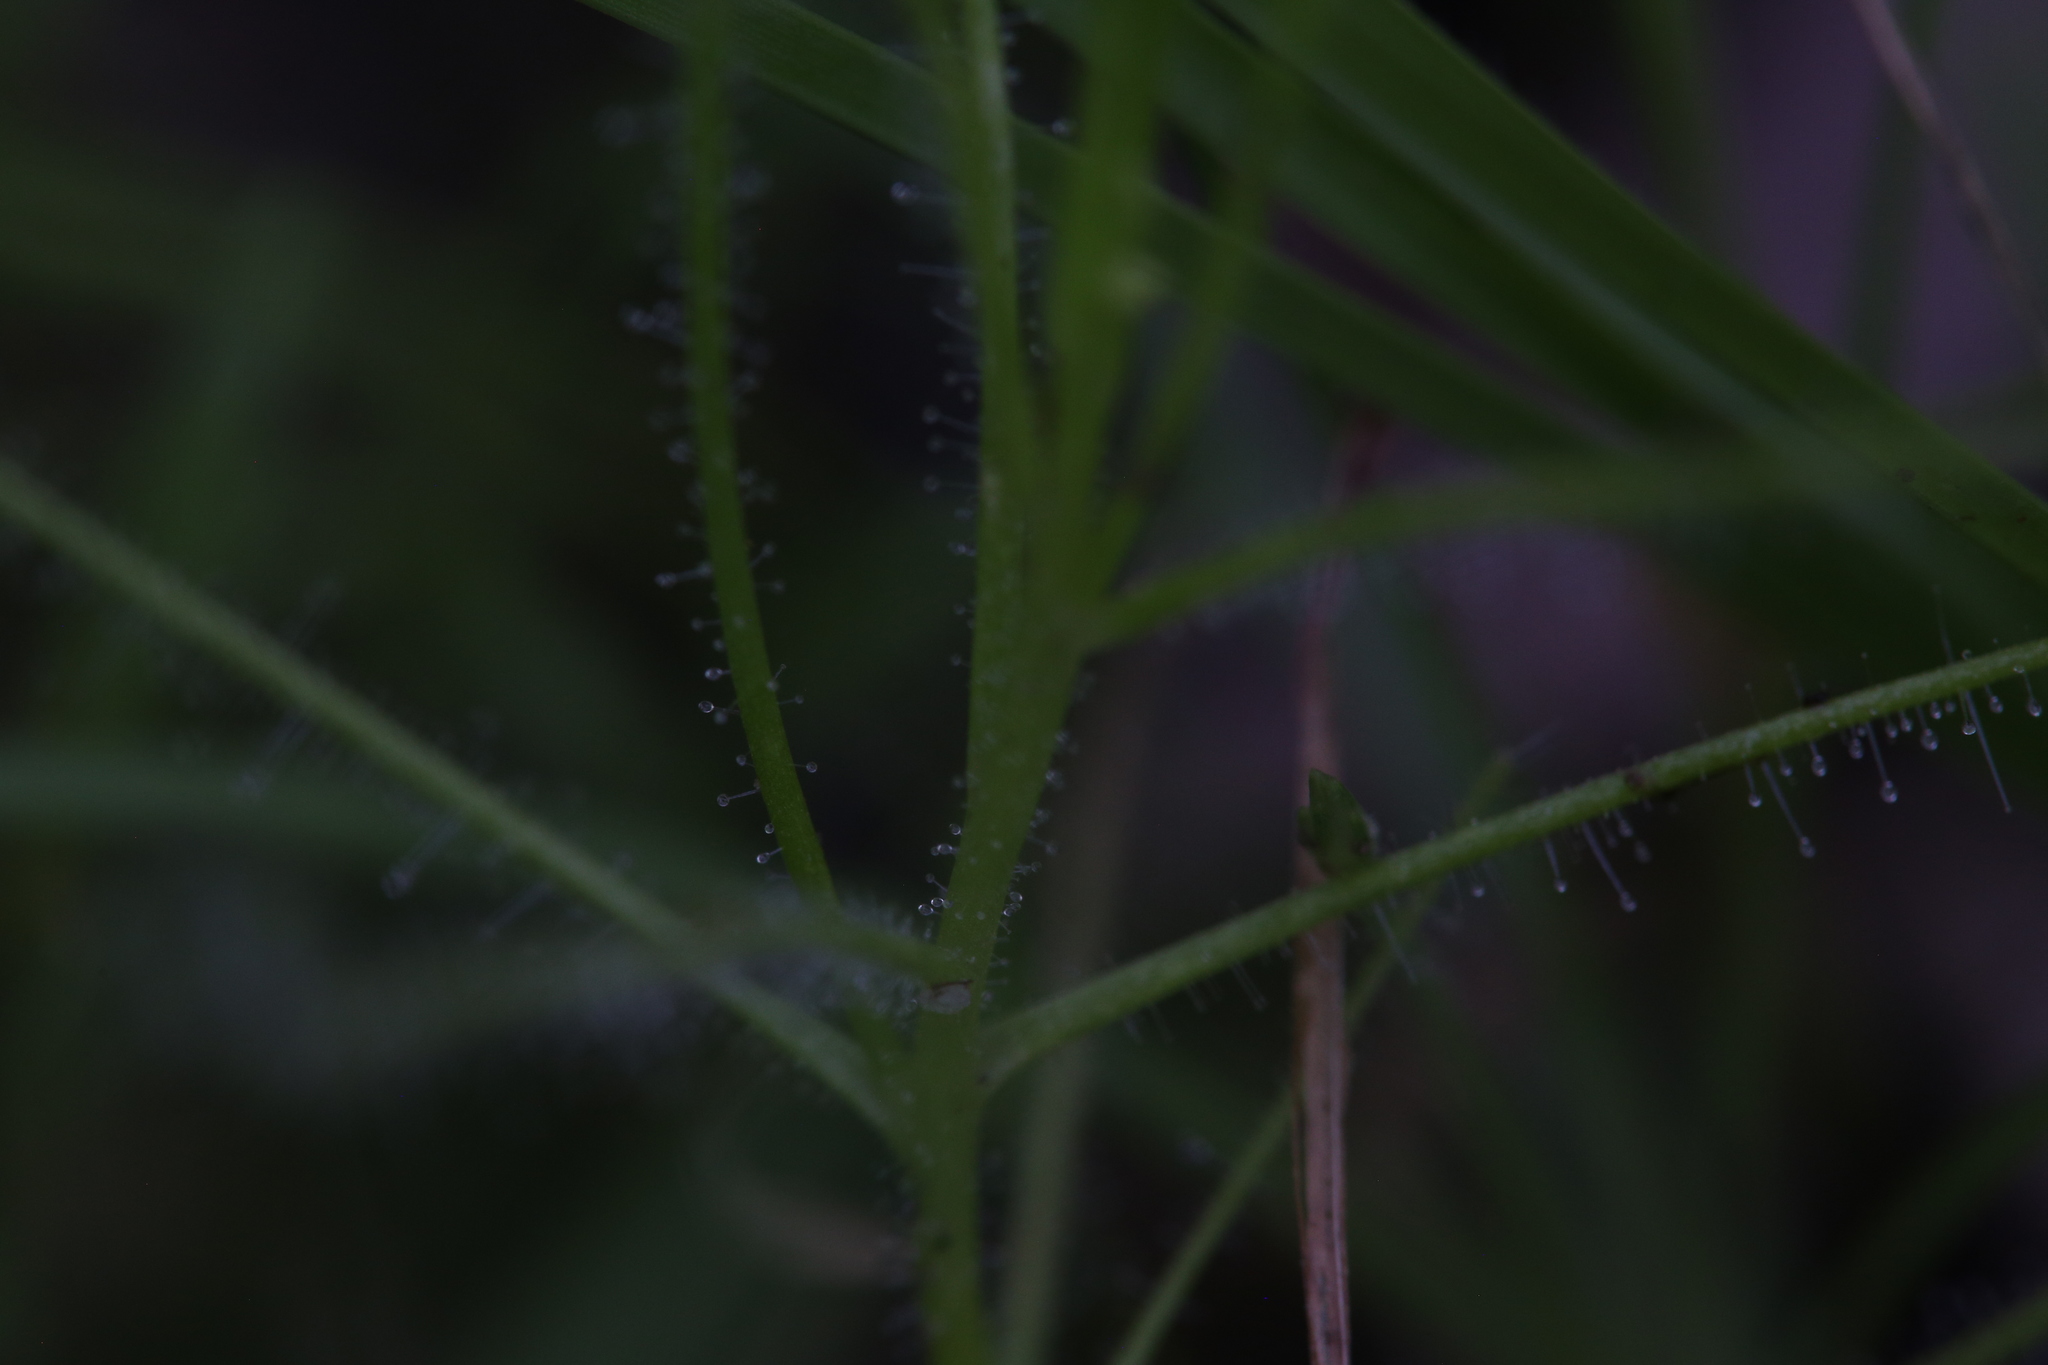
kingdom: Plantae
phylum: Tracheophyta
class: Magnoliopsida
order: Lamiales
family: Byblidaceae
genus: Byblis
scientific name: Byblis liniflora
